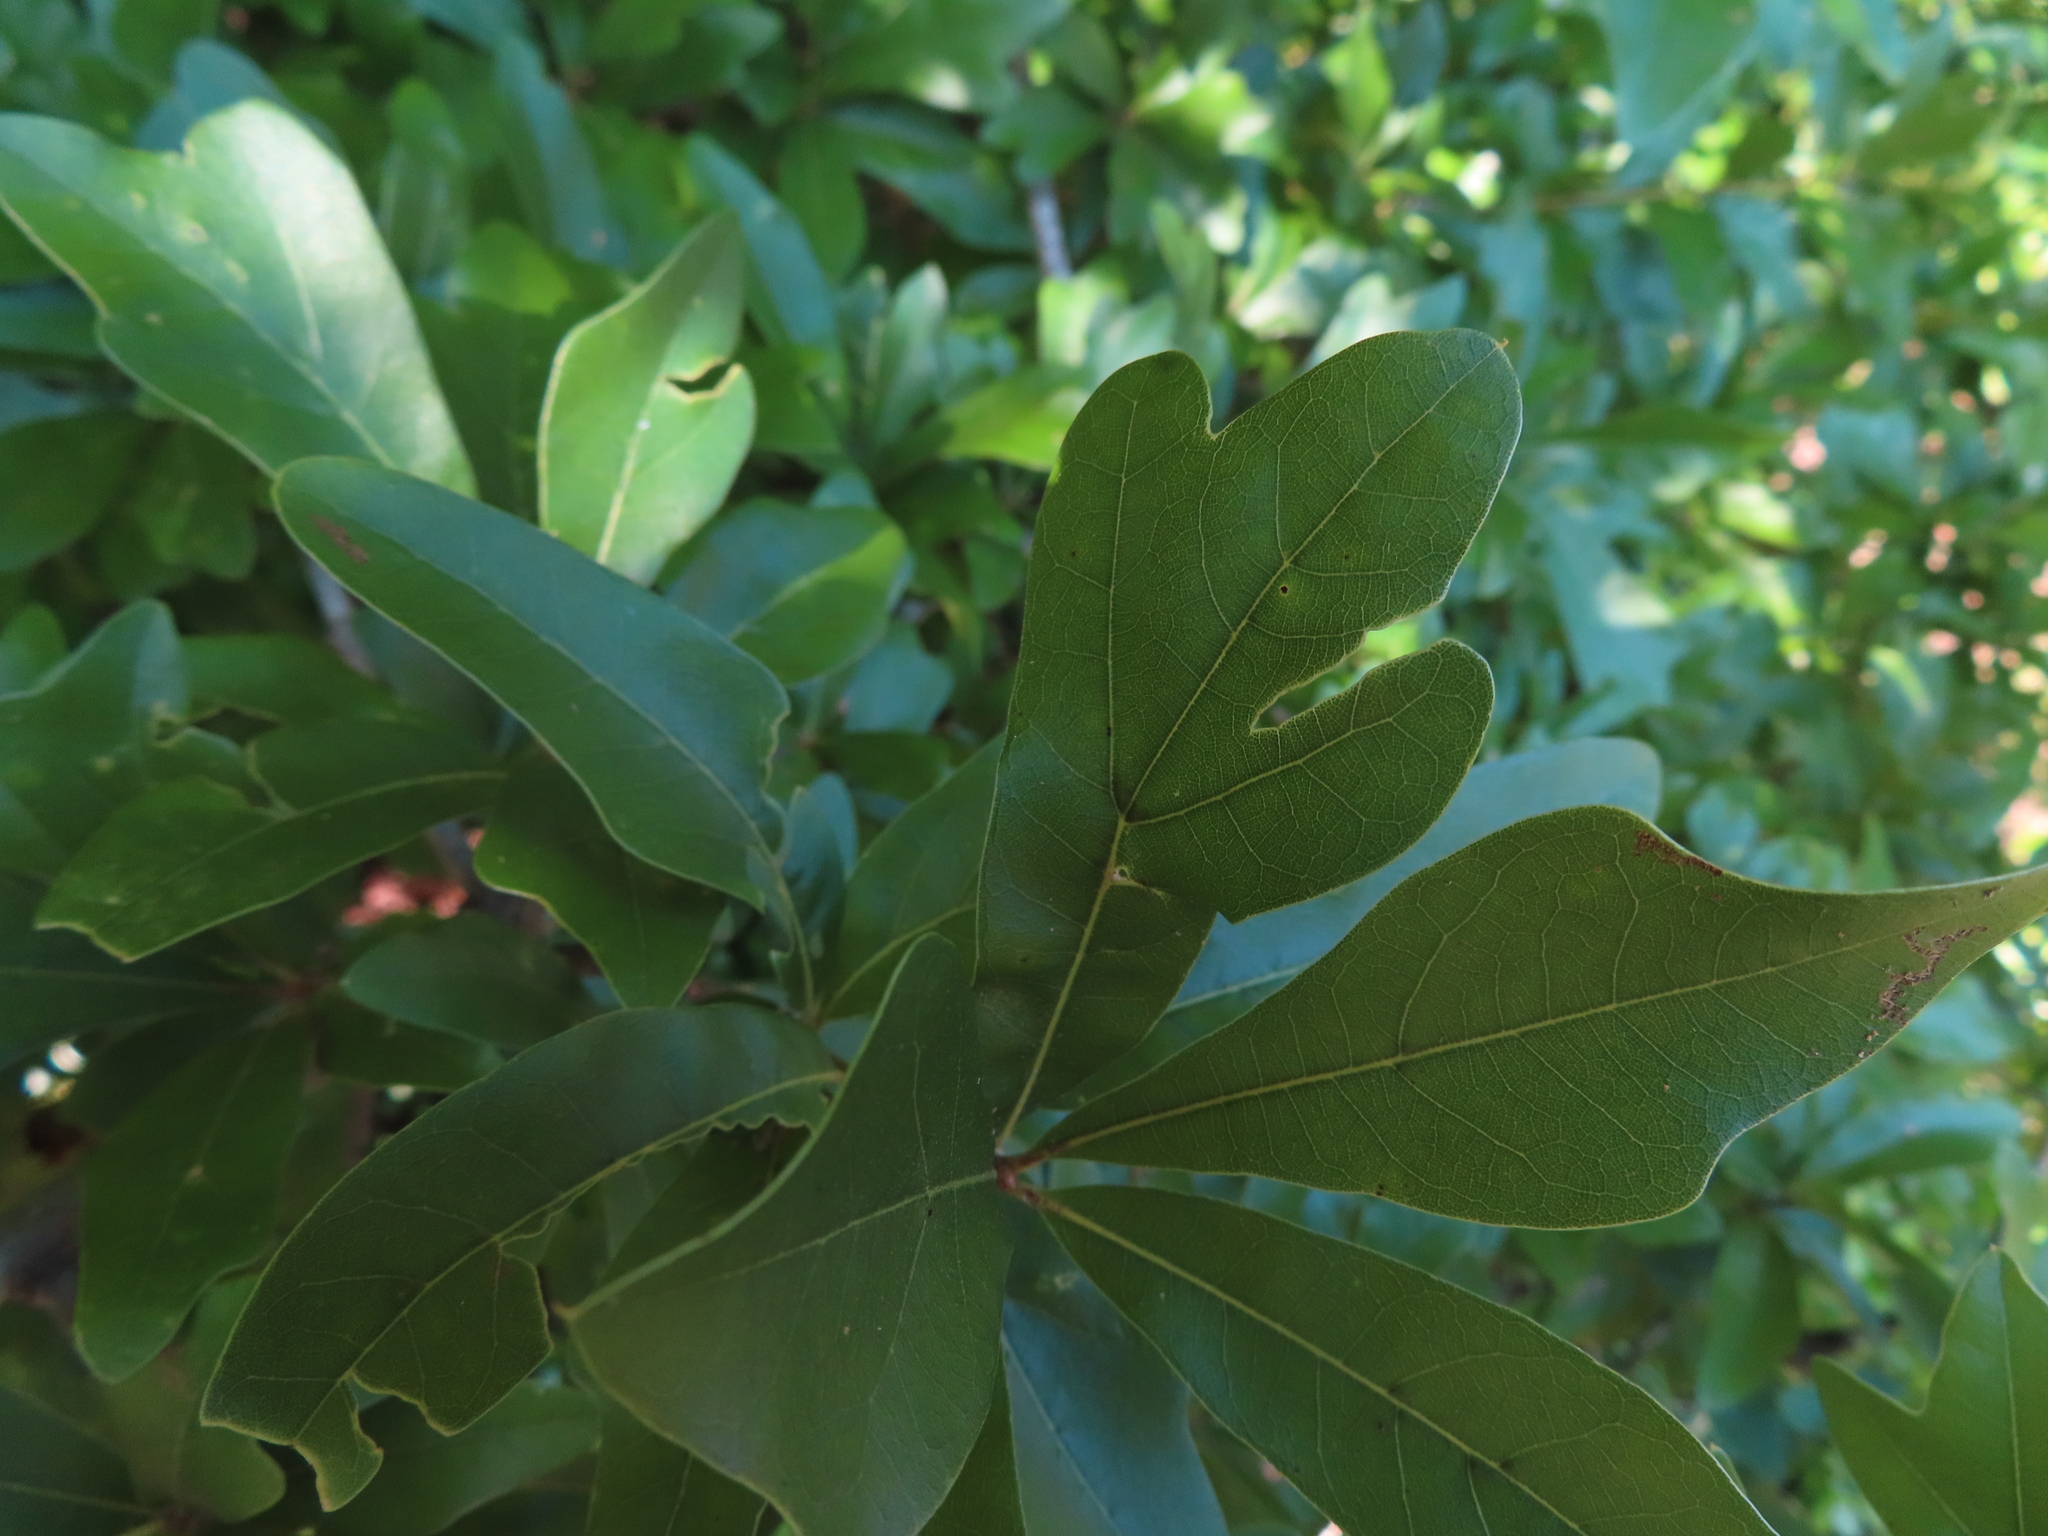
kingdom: Plantae
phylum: Tracheophyta
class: Magnoliopsida
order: Fagales
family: Fagaceae
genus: Quercus
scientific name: Quercus nigra
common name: Water oak
